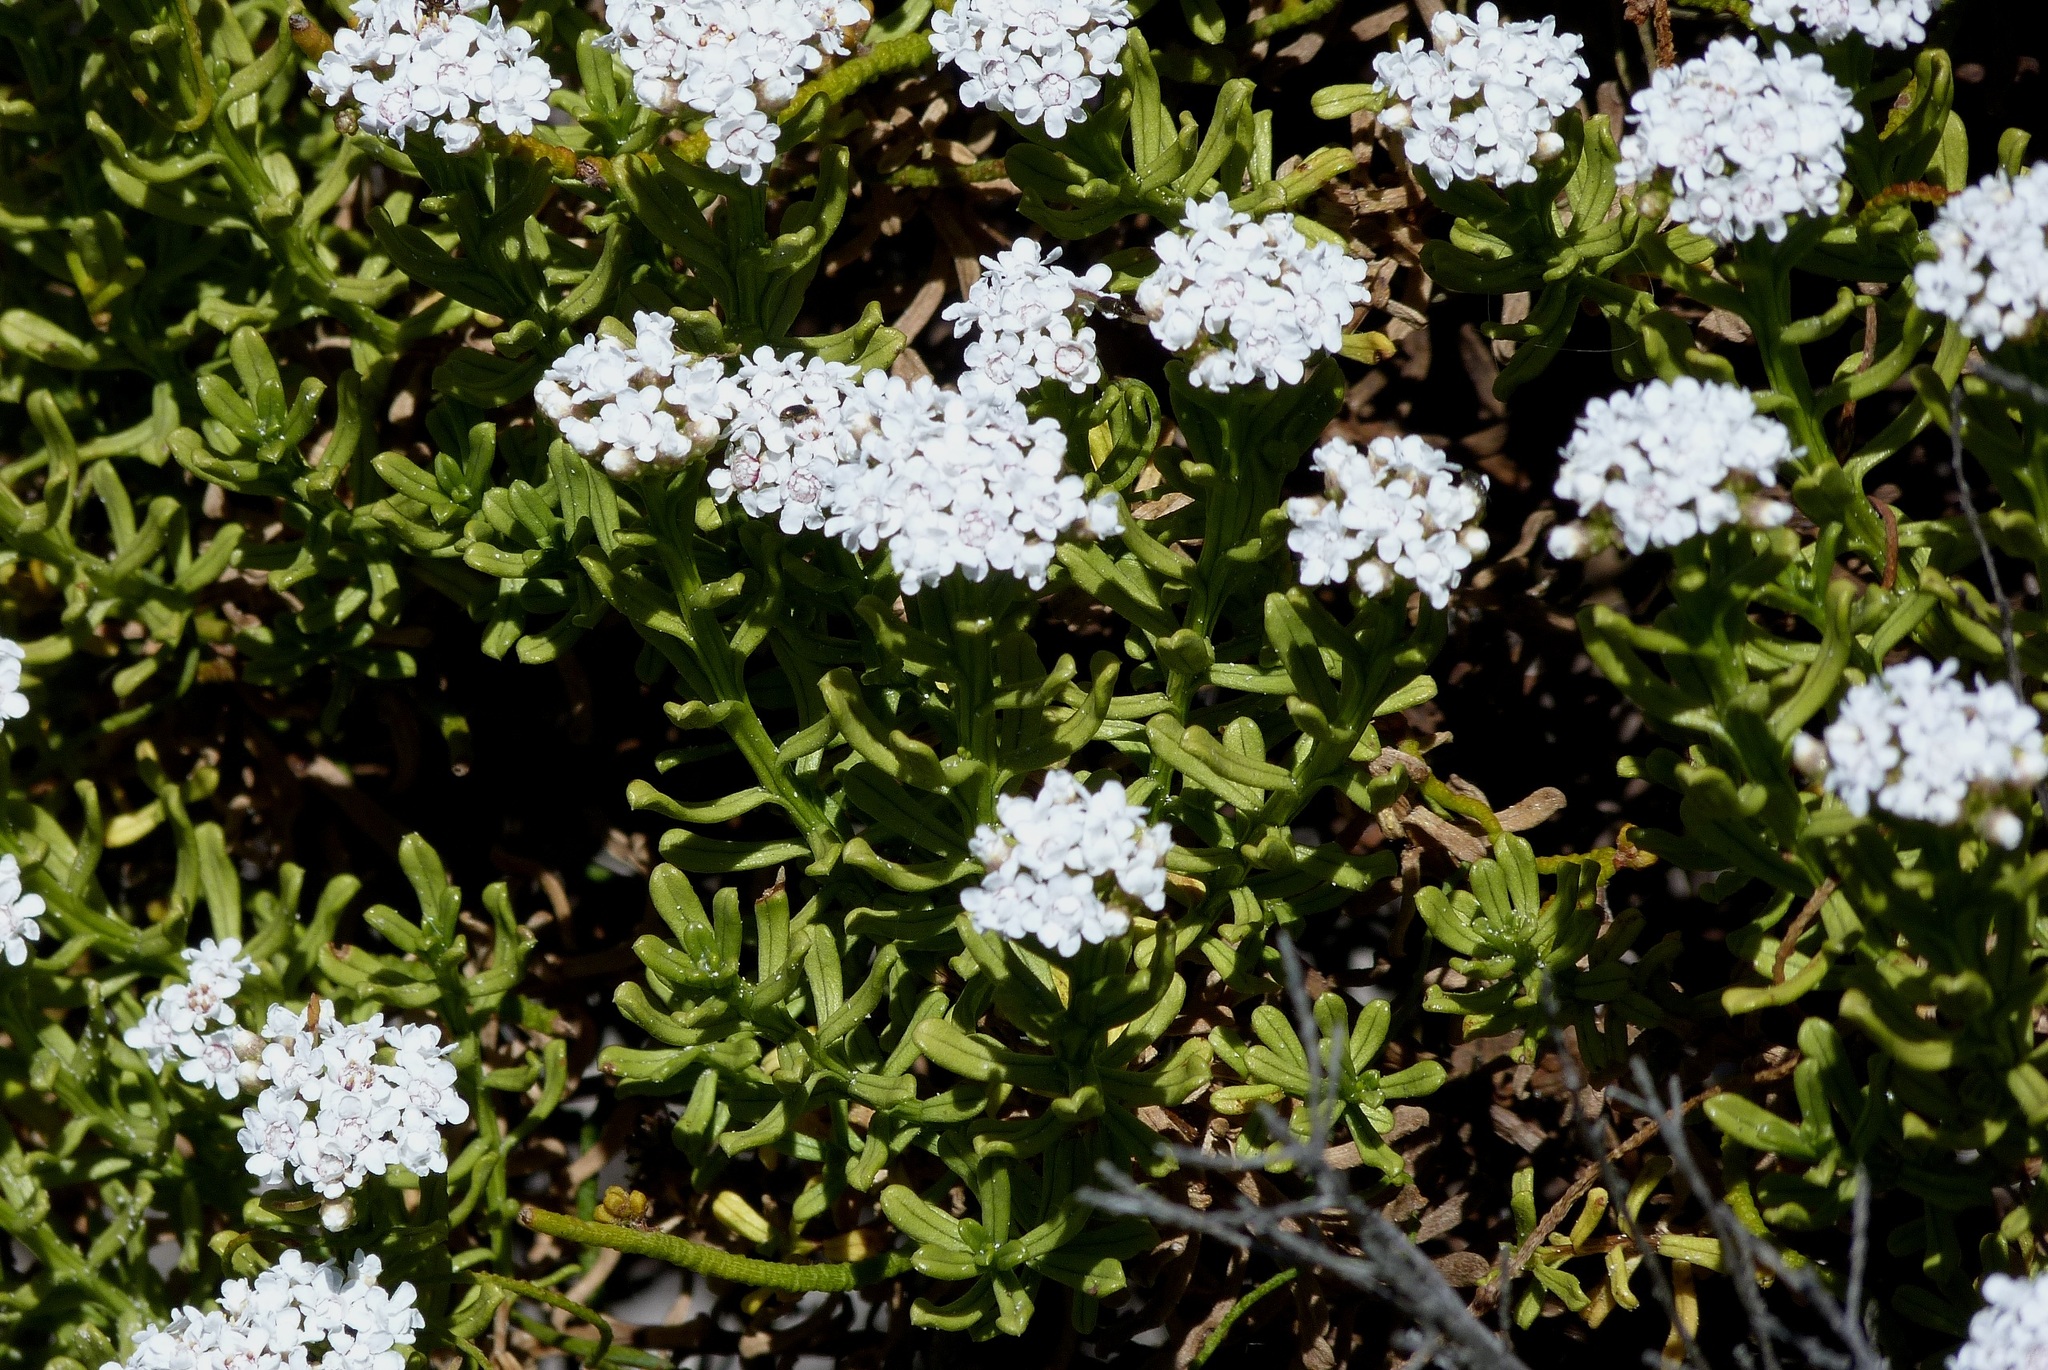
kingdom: Plantae
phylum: Tracheophyta
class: Magnoliopsida
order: Asterales
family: Asteraceae
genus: Ixodia
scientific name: Ixodia achillaeoides
